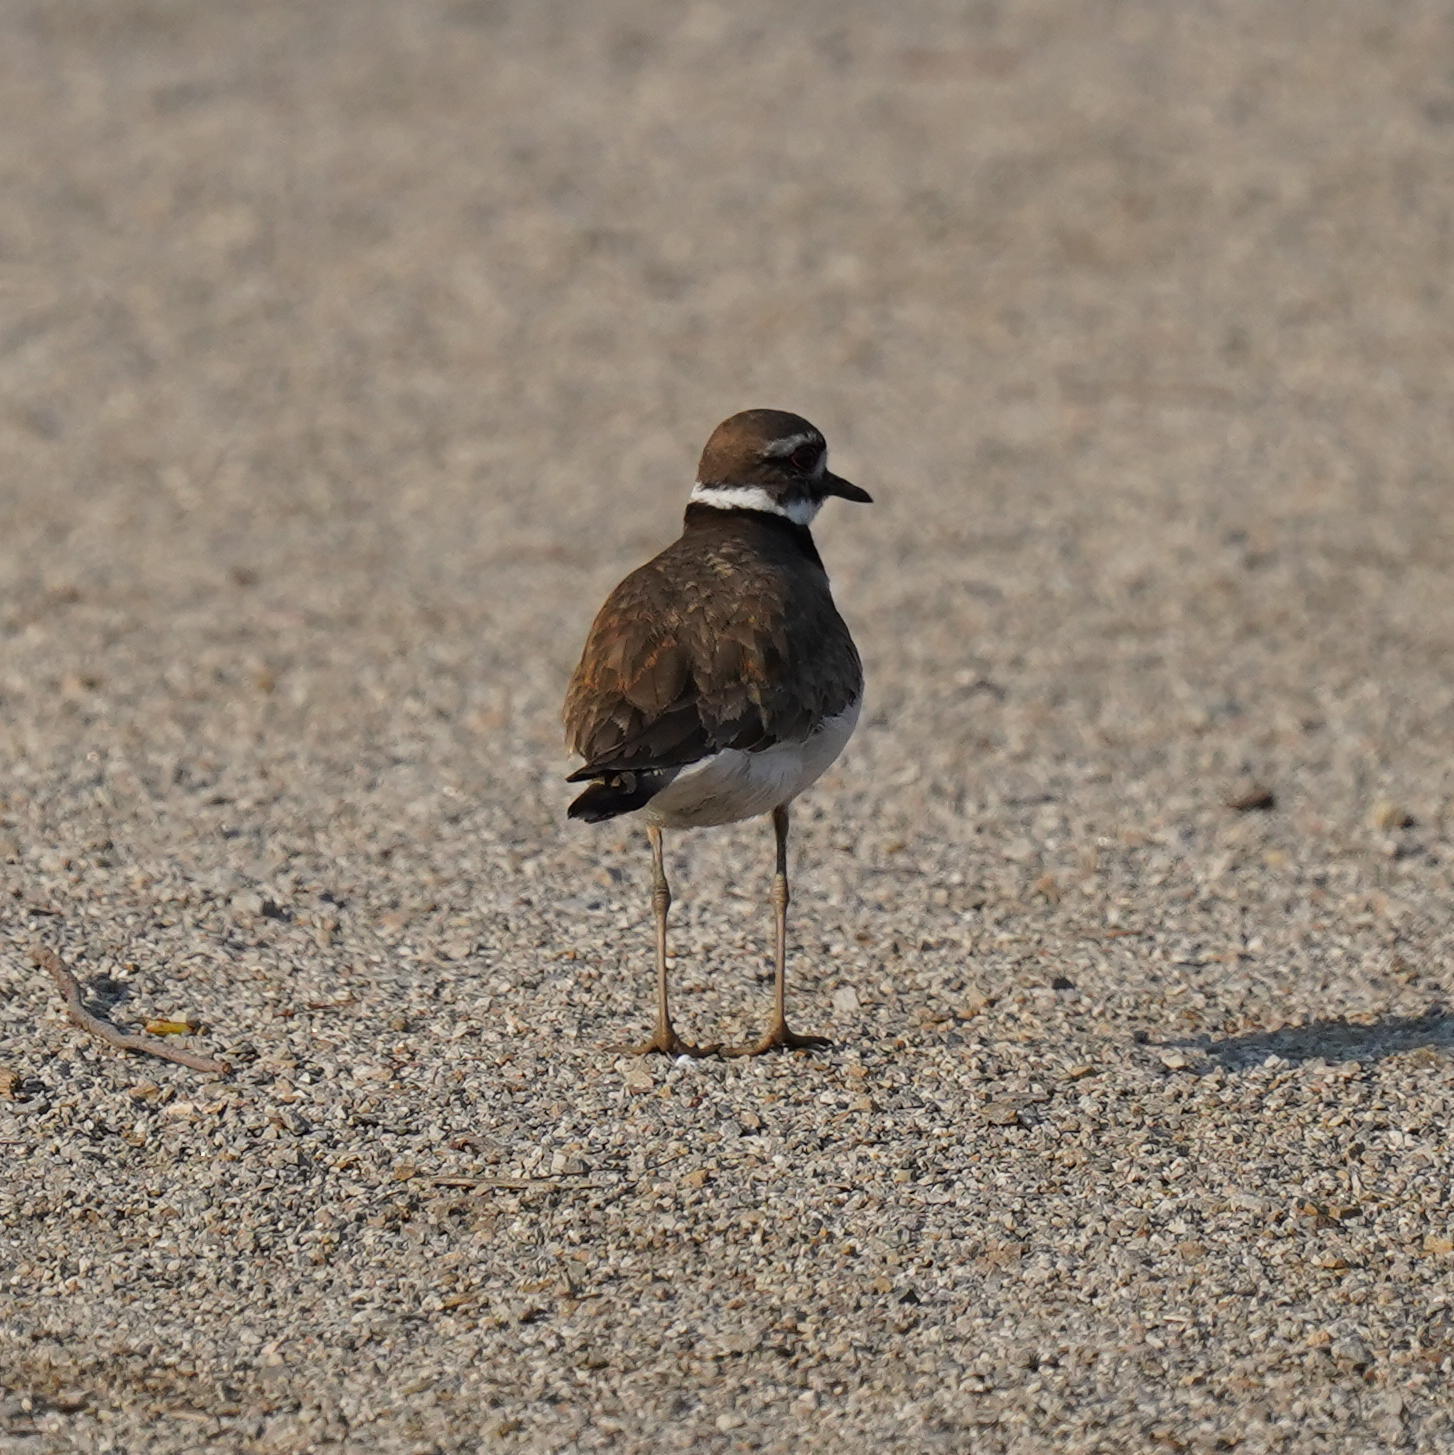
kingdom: Animalia
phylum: Chordata
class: Aves
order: Charadriiformes
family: Charadriidae
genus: Charadrius
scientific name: Charadrius vociferus
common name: Killdeer
